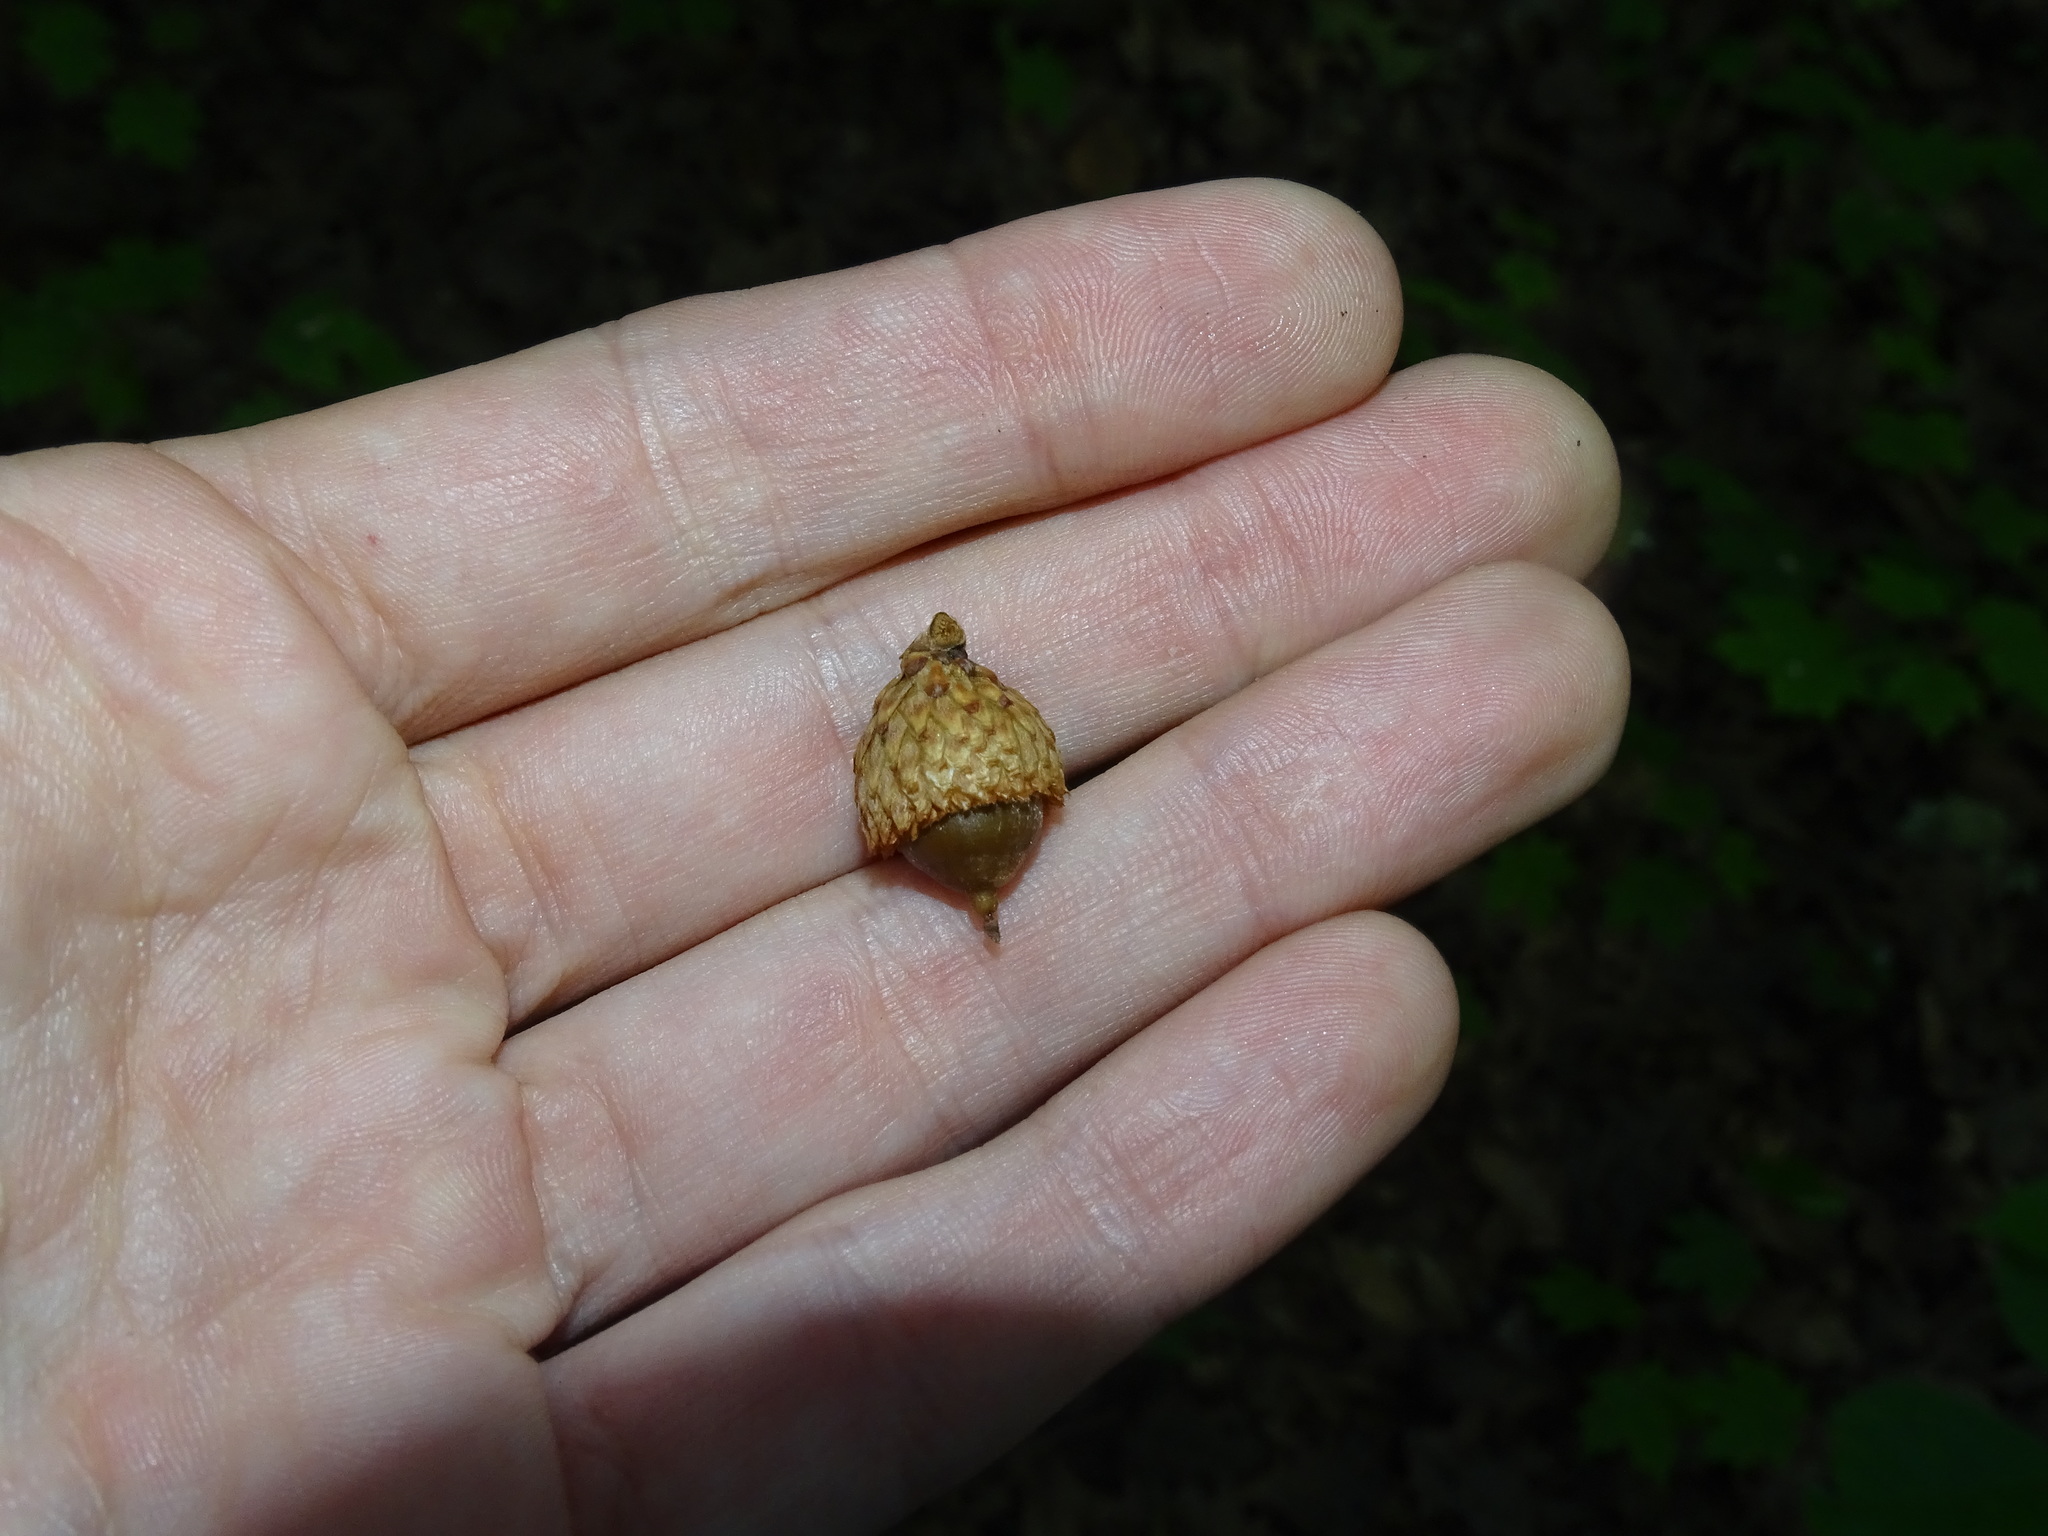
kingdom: Plantae
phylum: Tracheophyta
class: Magnoliopsida
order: Fagales
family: Fagaceae
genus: Quercus
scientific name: Quercus velutina
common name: Black oak
